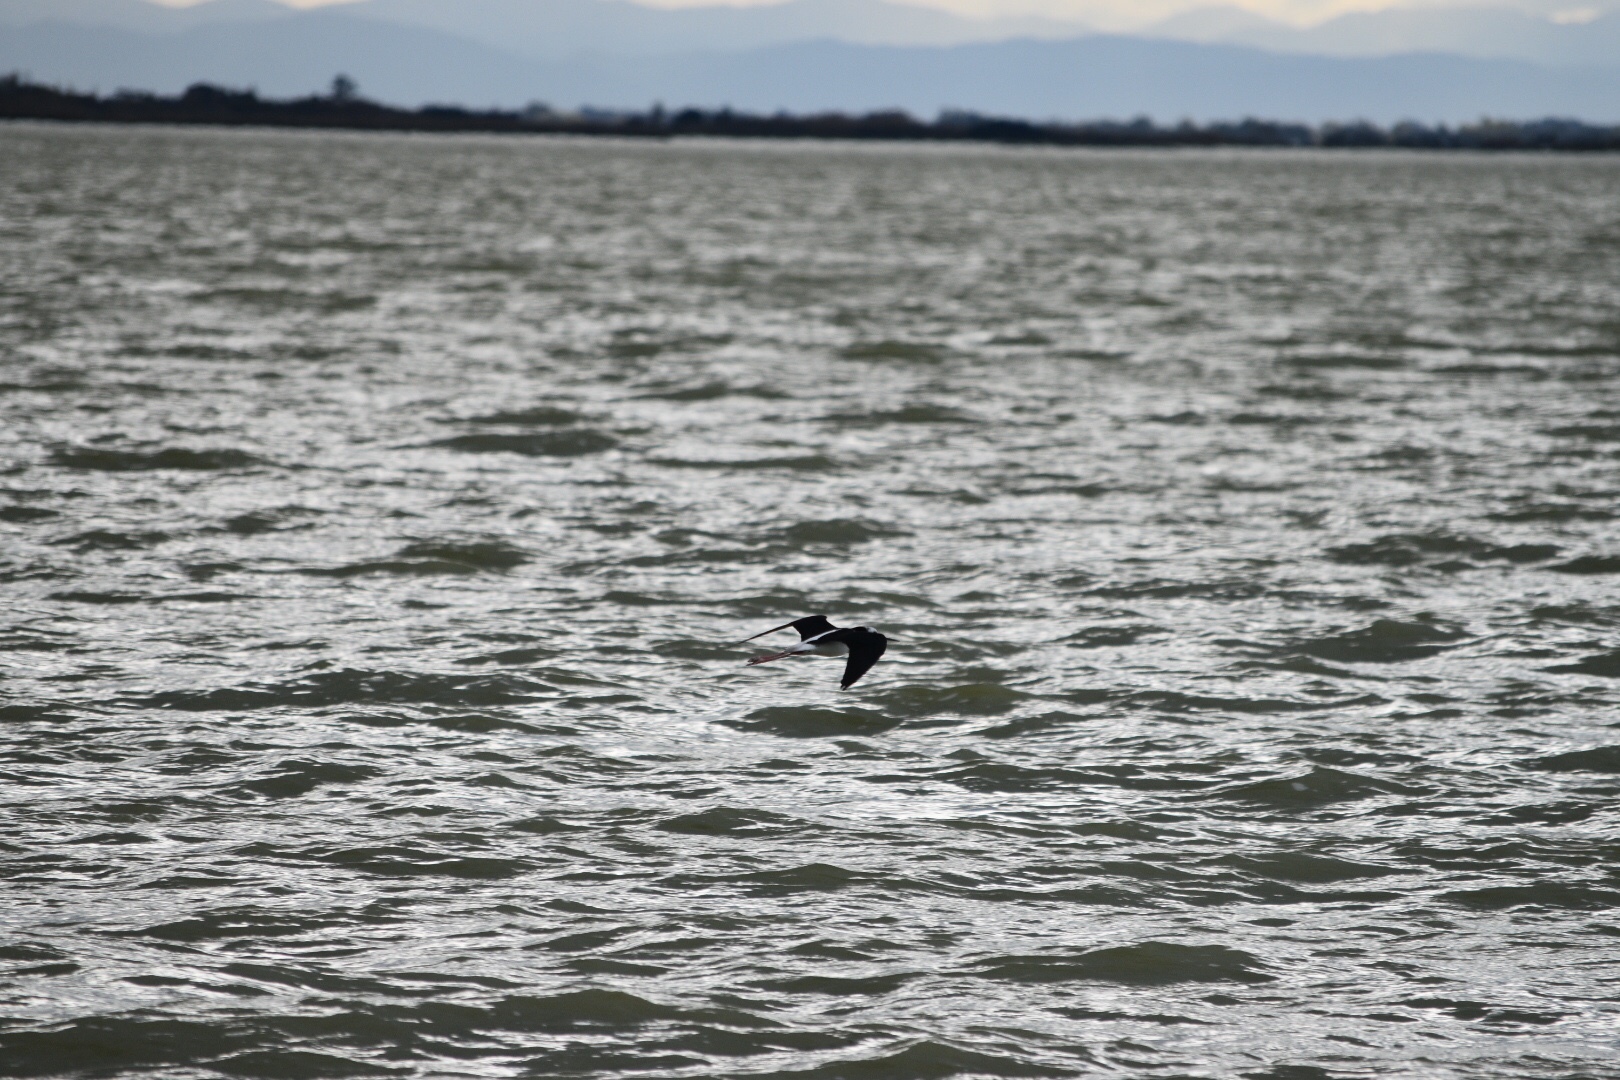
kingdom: Animalia
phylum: Chordata
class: Aves
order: Charadriiformes
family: Recurvirostridae
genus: Himantopus
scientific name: Himantopus leucocephalus
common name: White-headed stilt
